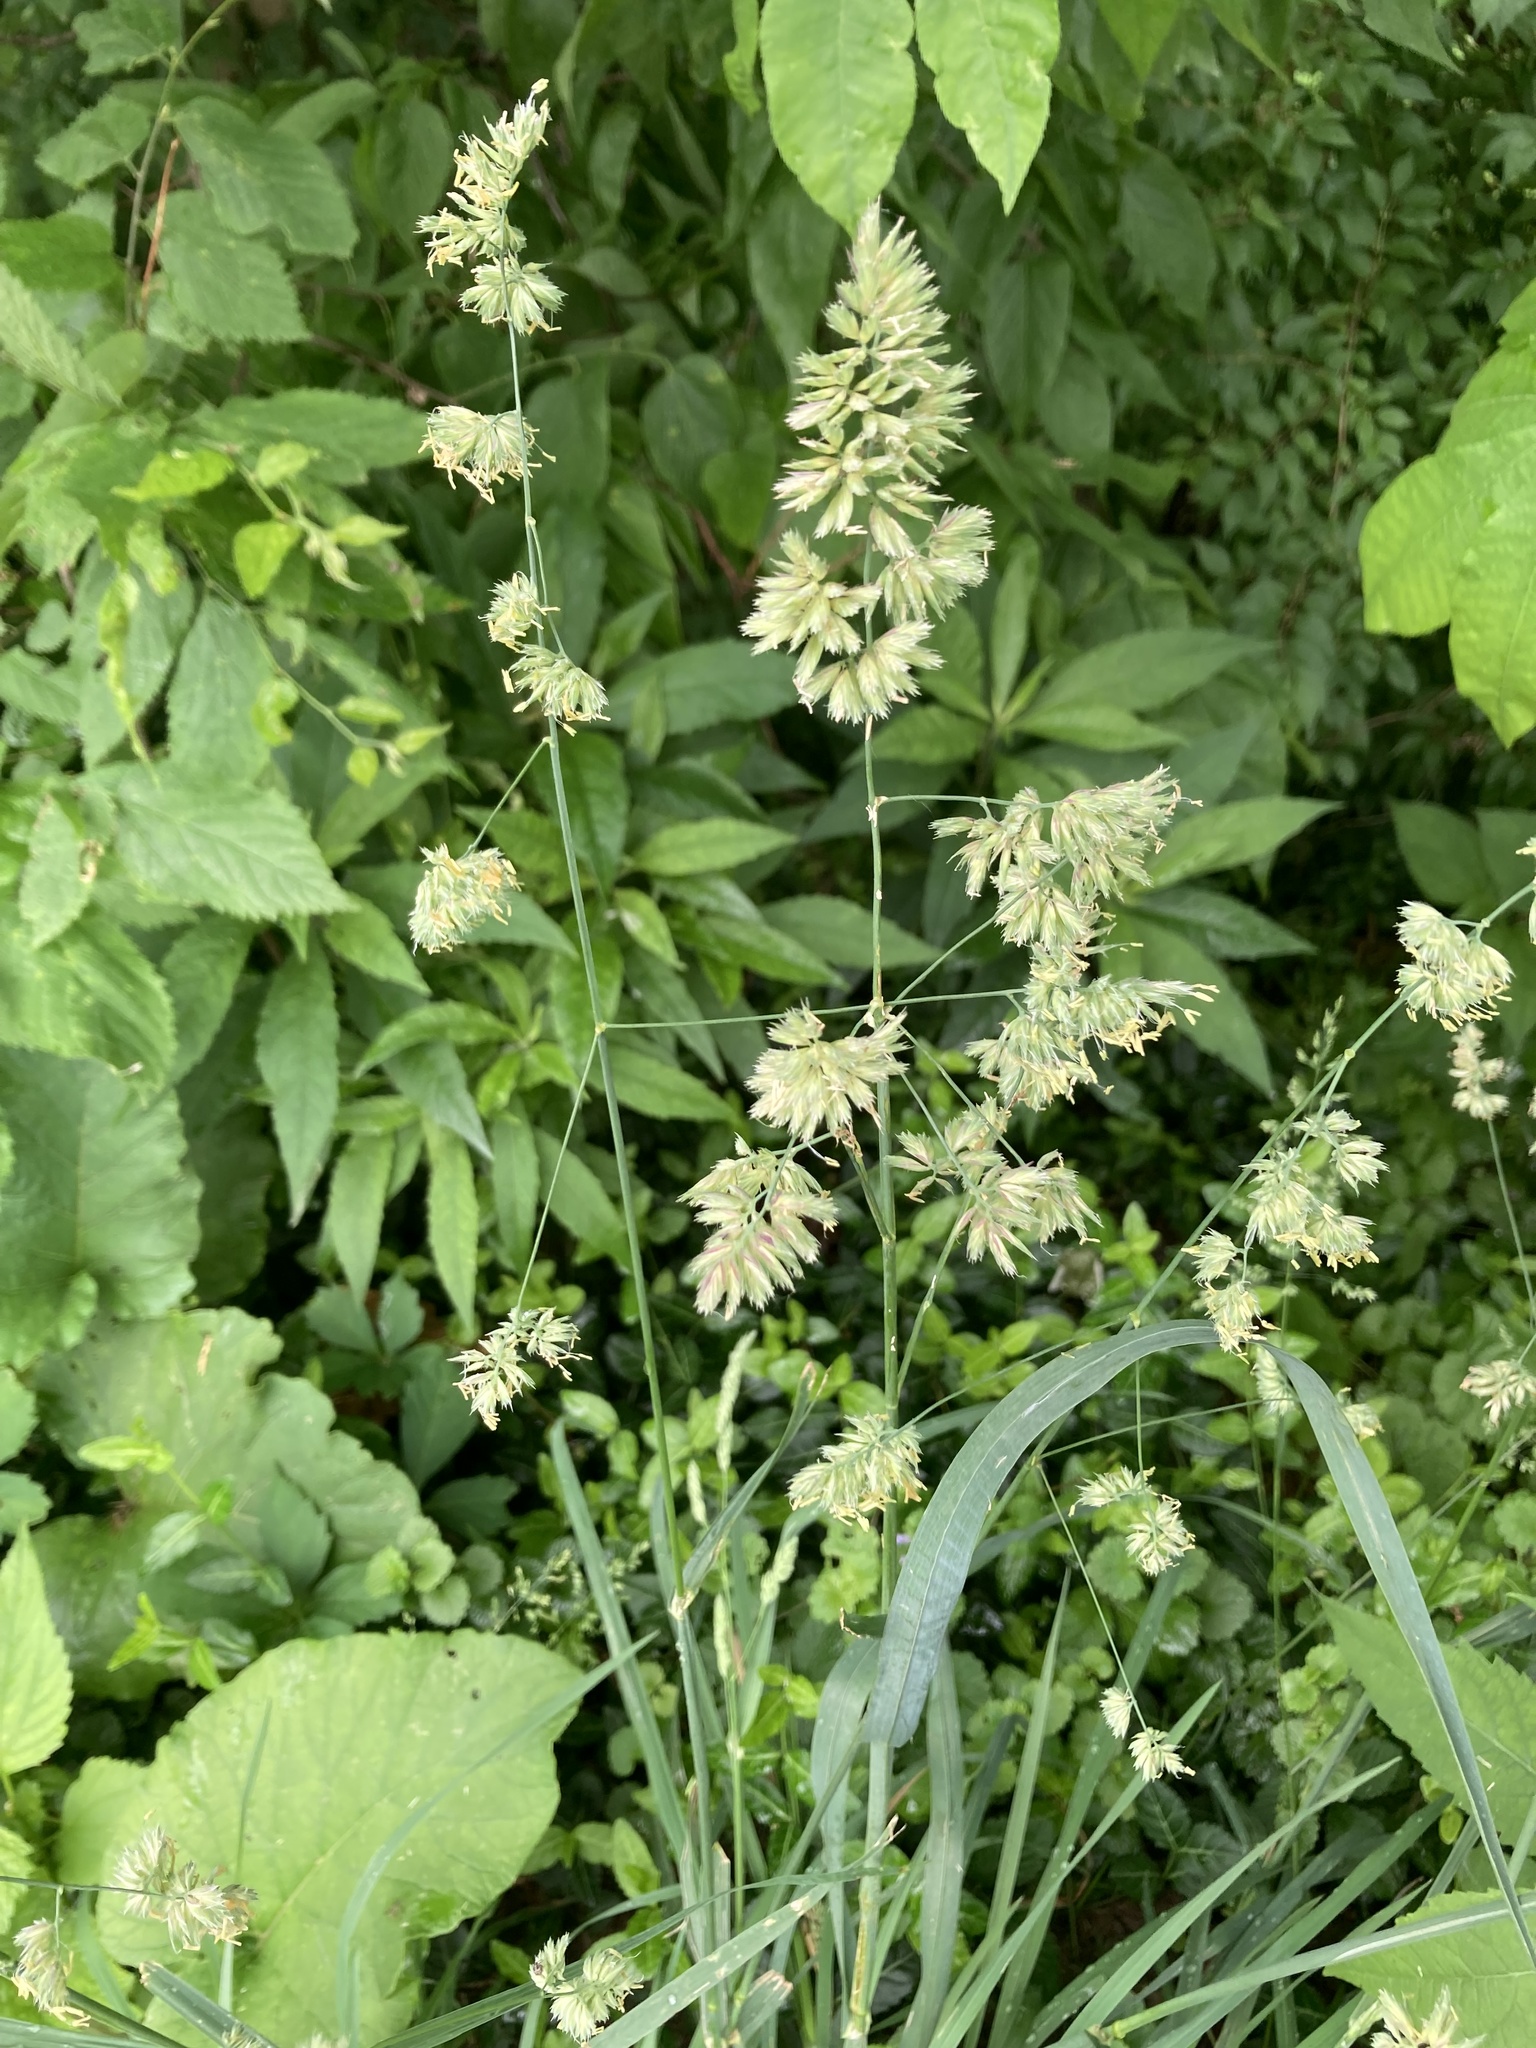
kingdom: Plantae
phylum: Tracheophyta
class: Liliopsida
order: Poales
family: Poaceae
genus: Dactylis
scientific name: Dactylis glomerata
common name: Orchardgrass
